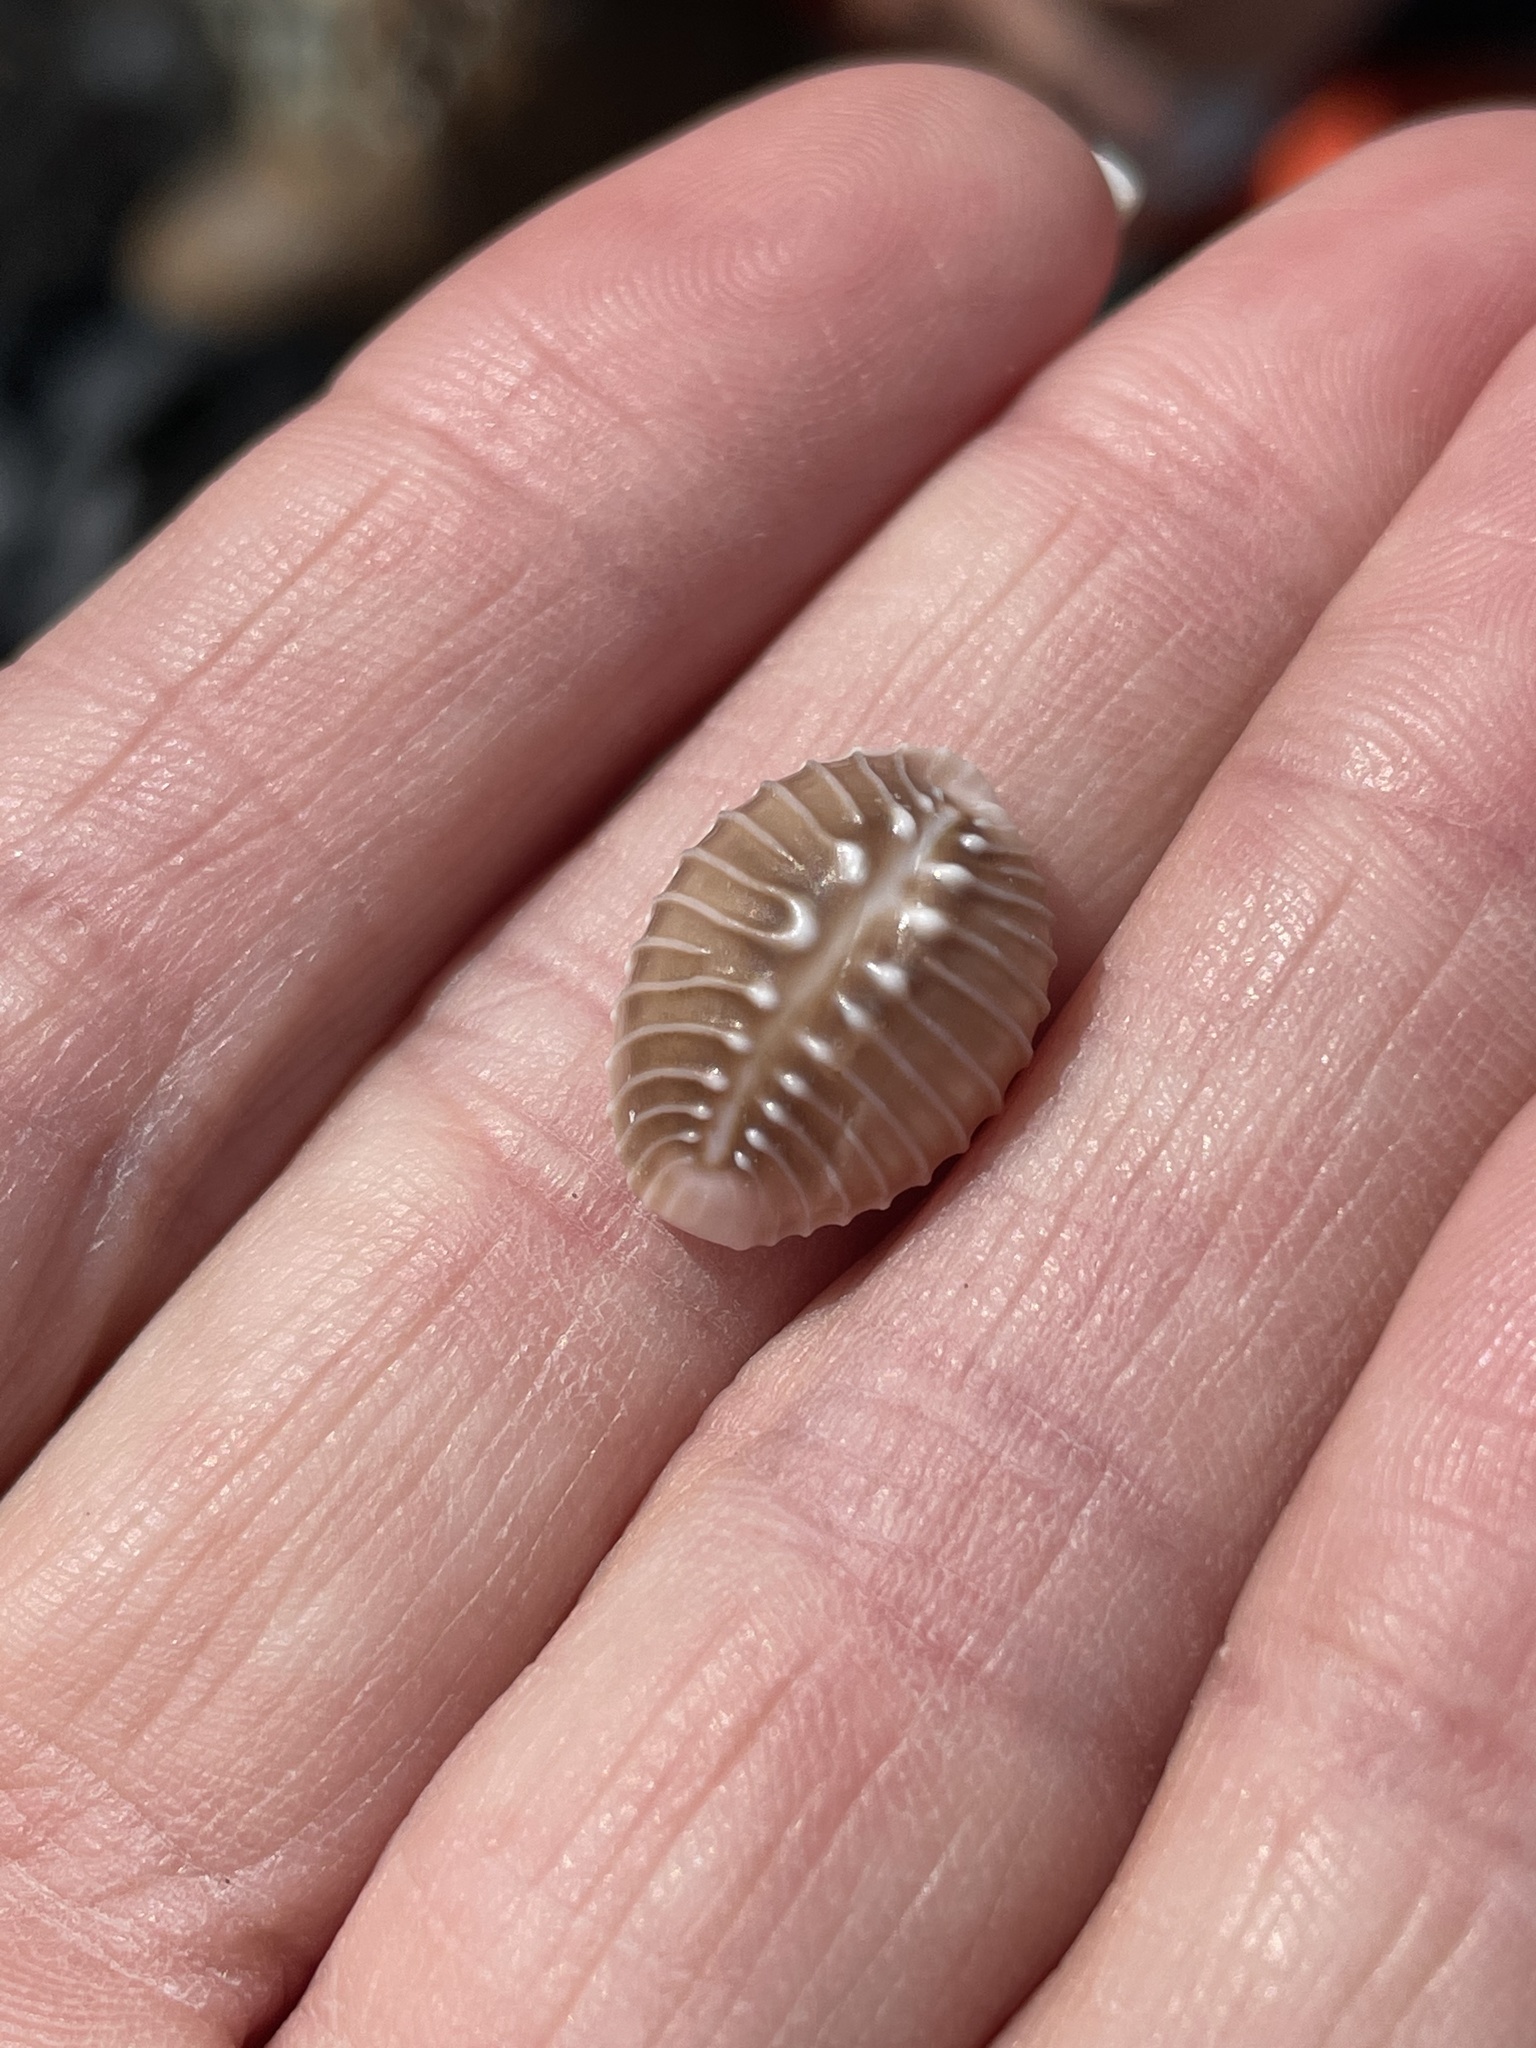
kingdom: Animalia
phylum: Mollusca
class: Gastropoda
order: Littorinimorpha
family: Triviidae
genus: Pusula
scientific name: Pusula solandri
